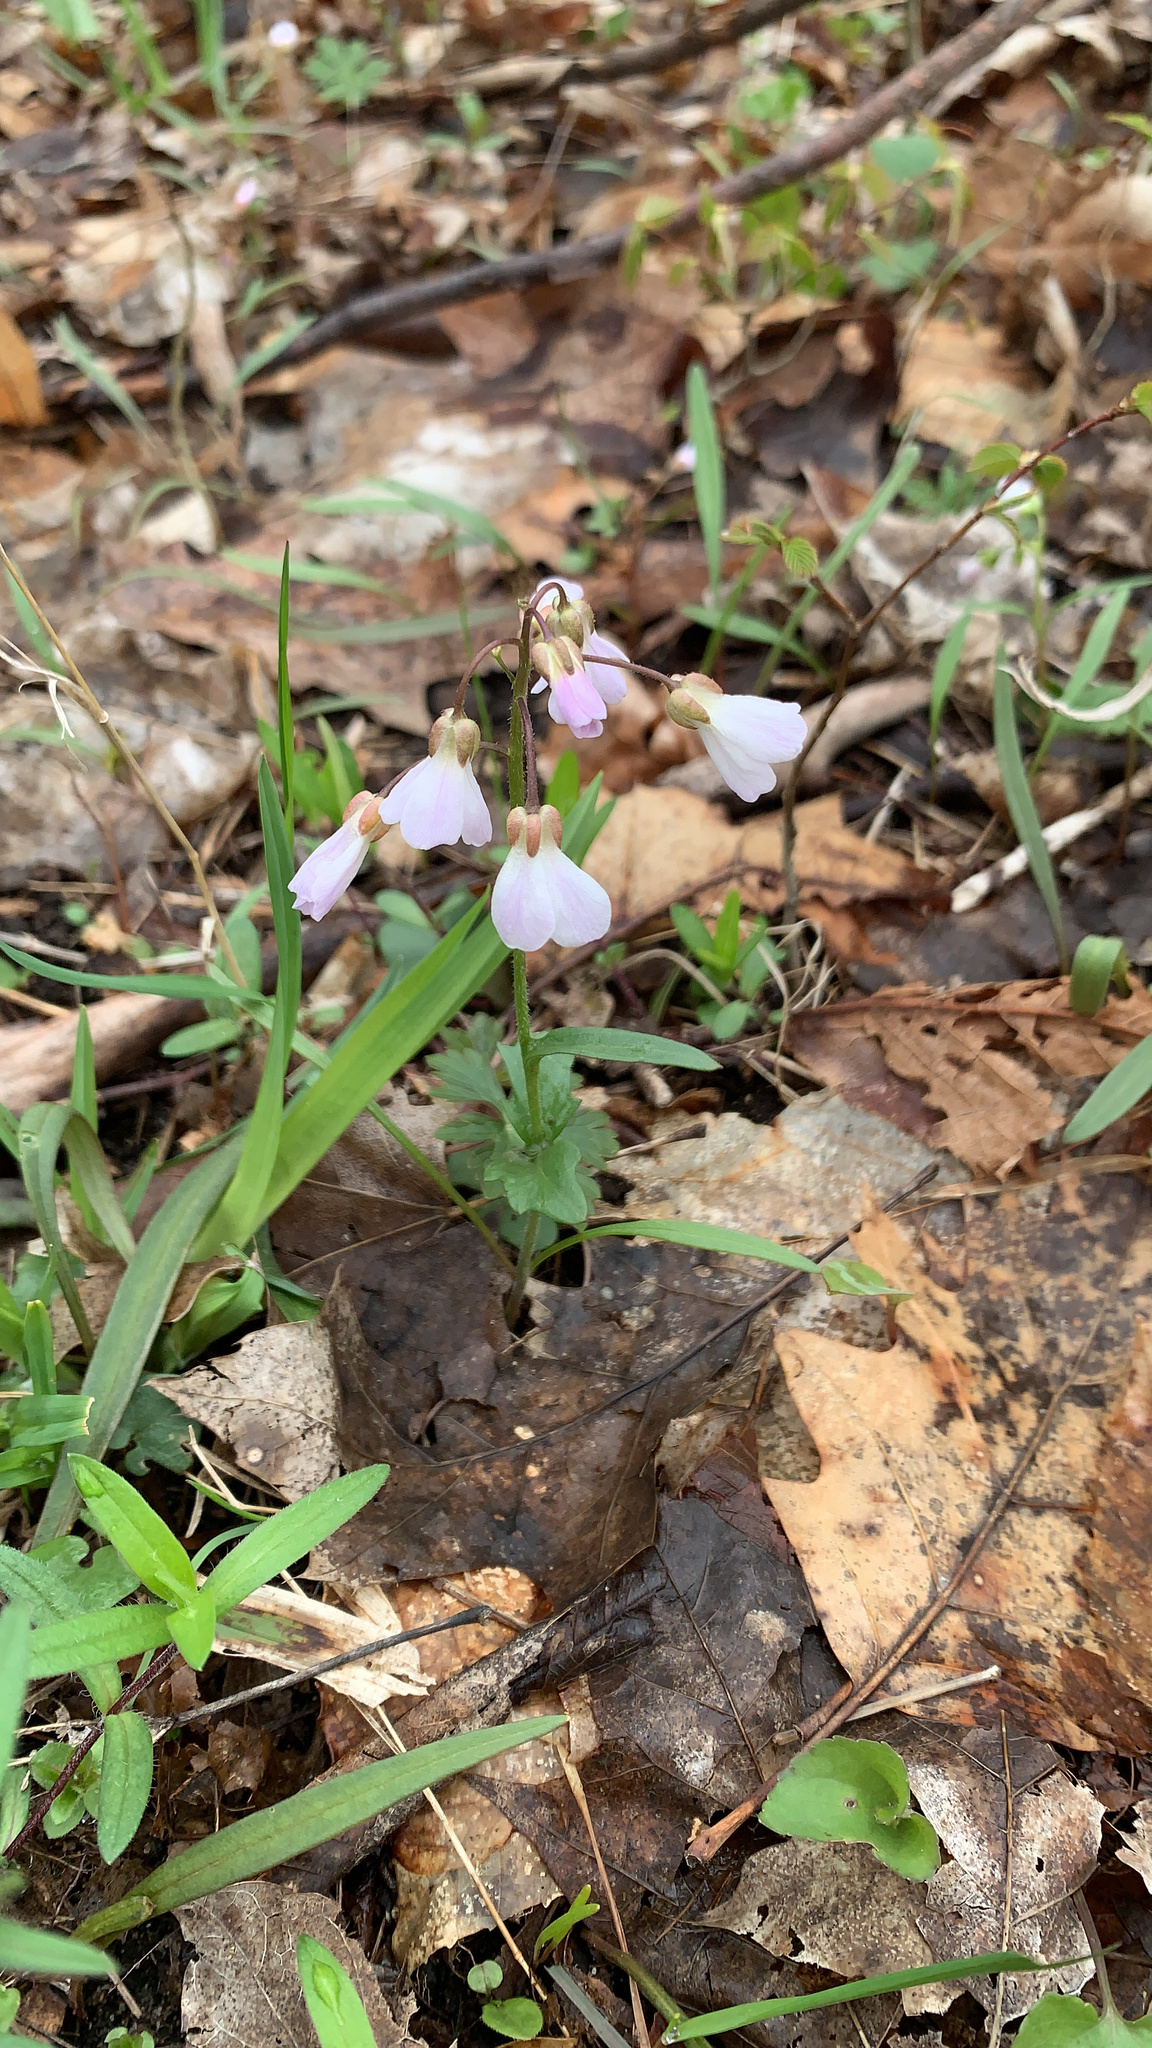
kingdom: Plantae
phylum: Tracheophyta
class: Magnoliopsida
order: Brassicales
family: Brassicaceae
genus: Cardamine
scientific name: Cardamine douglassii
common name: Purple cress
